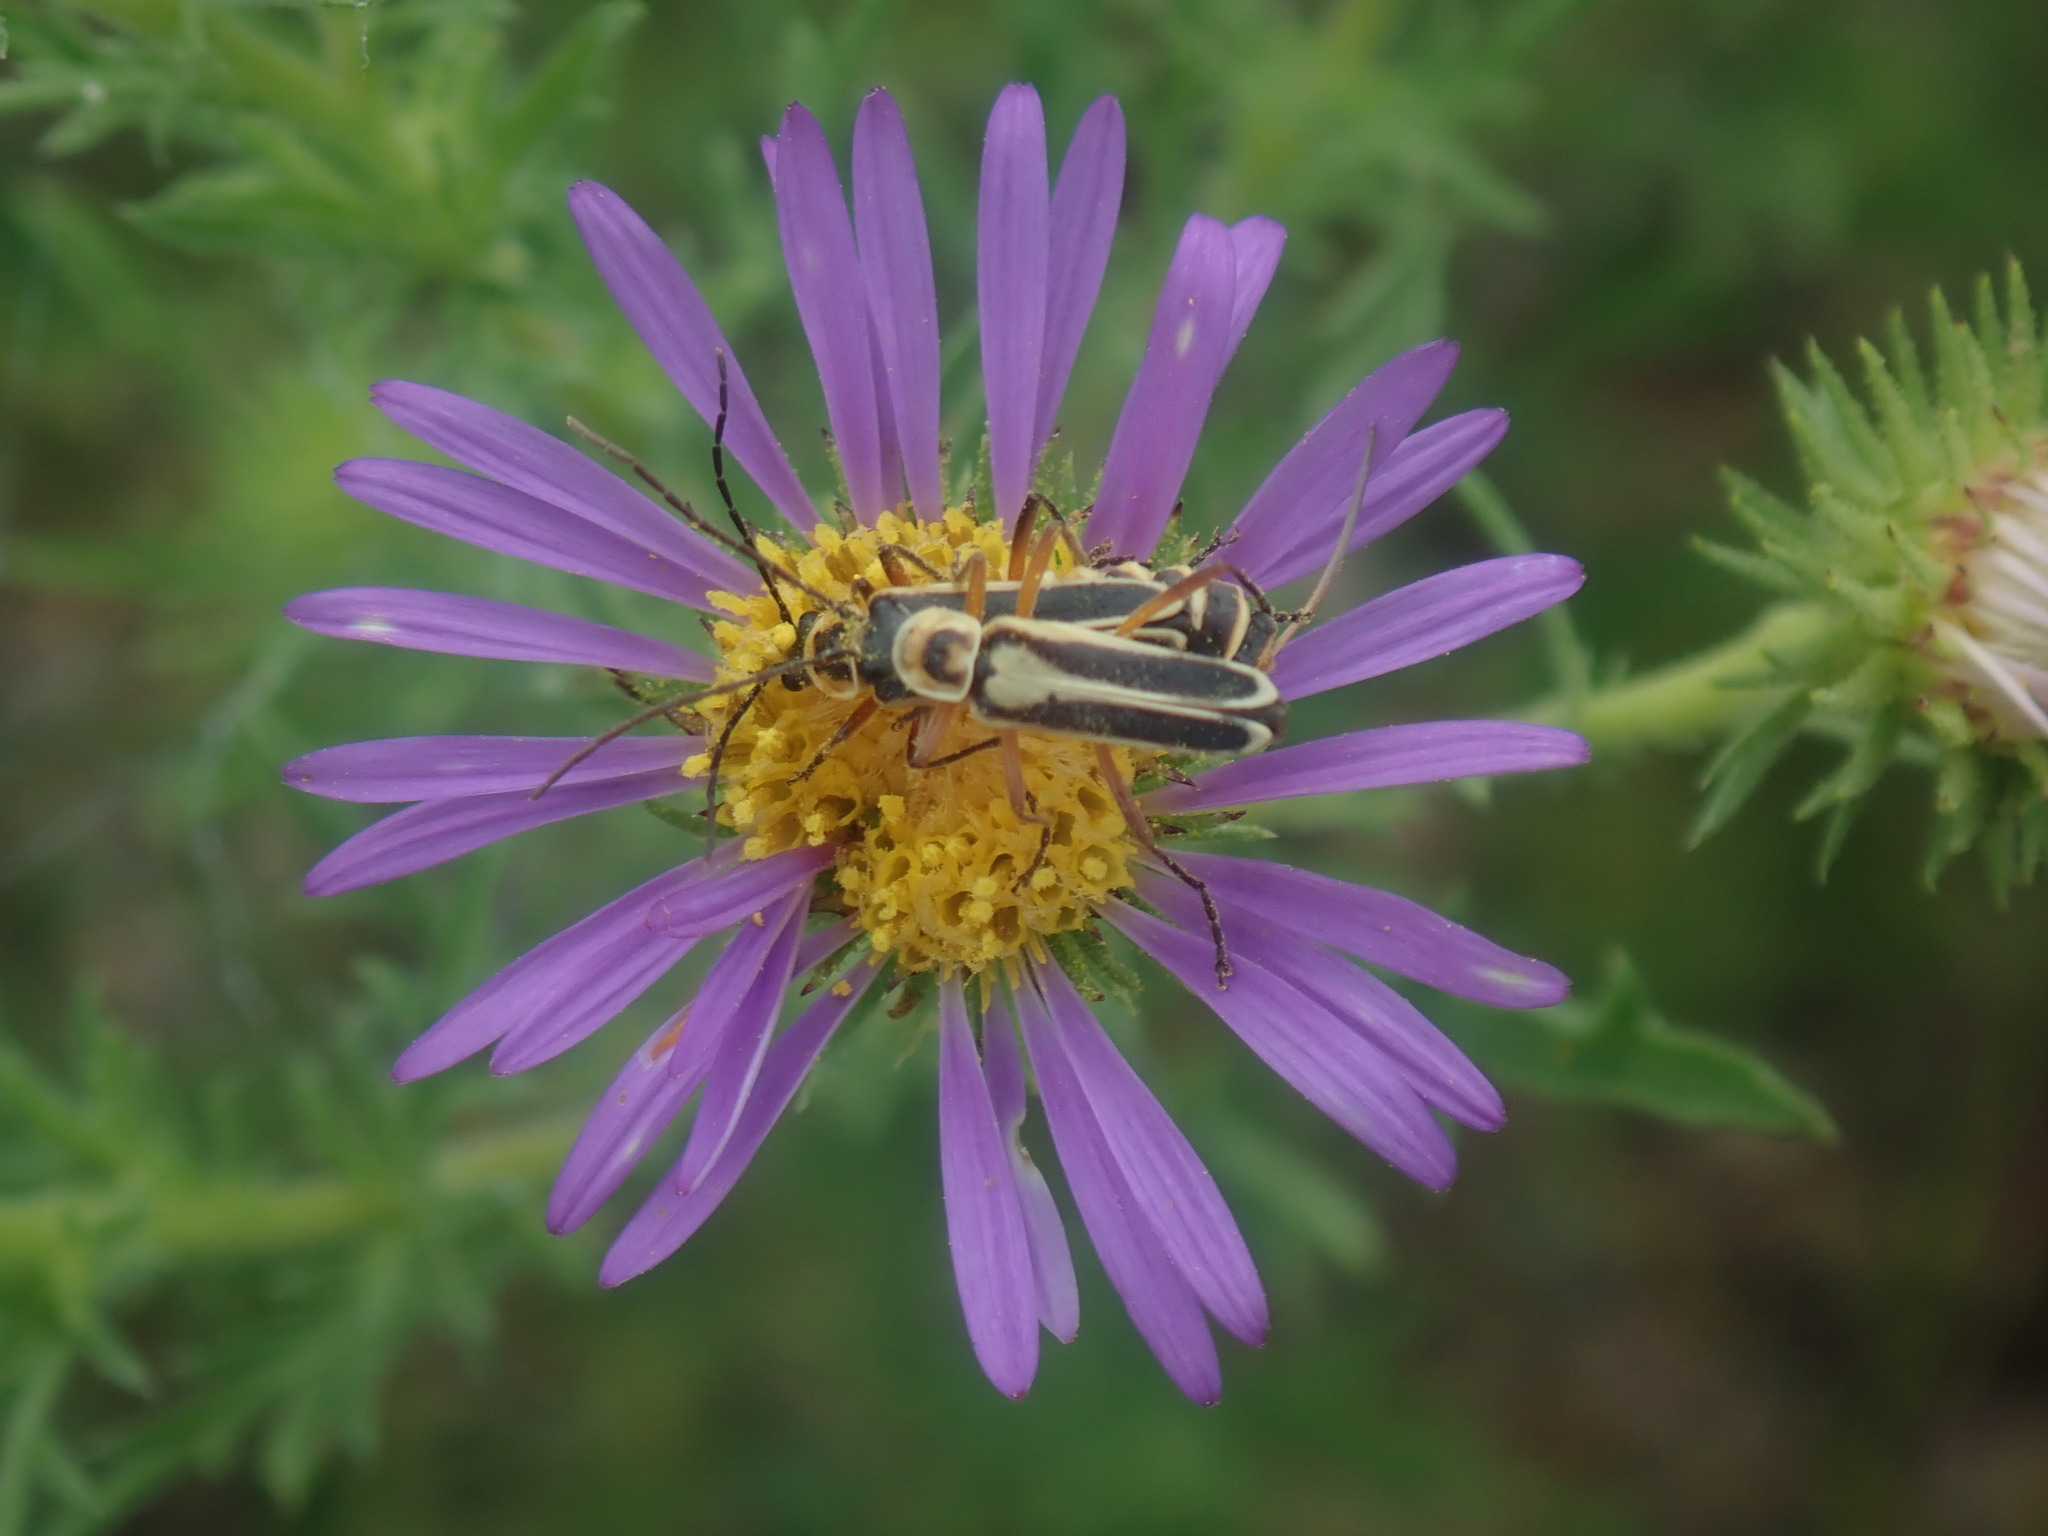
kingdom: Animalia
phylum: Arthropoda
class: Insecta
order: Coleoptera
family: Cantharidae
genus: Chauliognathus
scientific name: Chauliognathus lewisi
